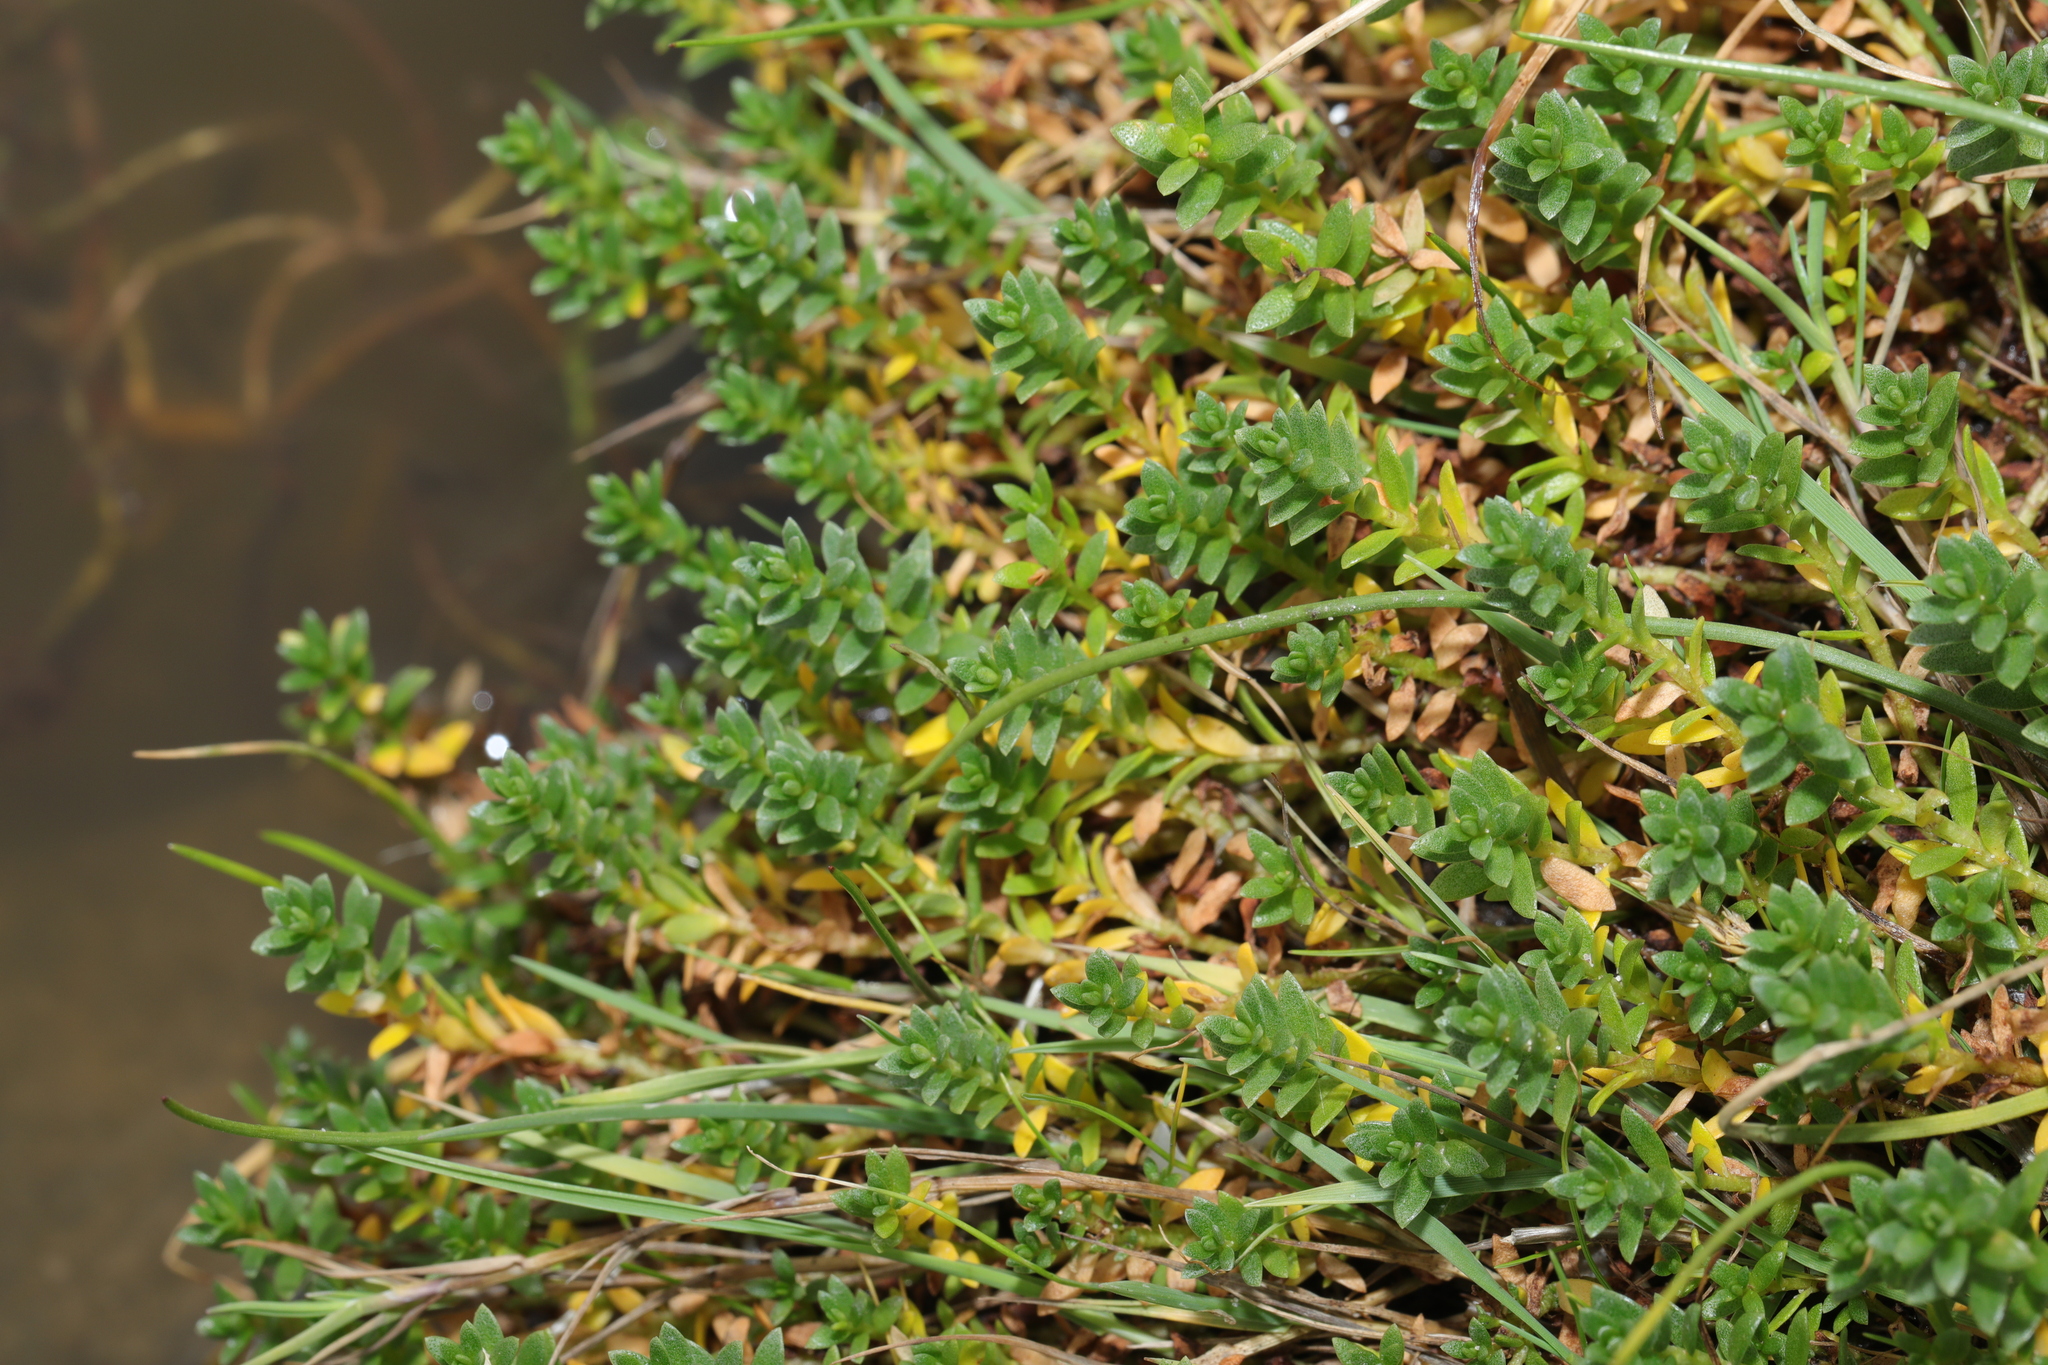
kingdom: Plantae
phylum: Tracheophyta
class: Magnoliopsida
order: Ericales
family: Primulaceae
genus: Lysimachia
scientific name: Lysimachia maritima
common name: Sea milkwort
